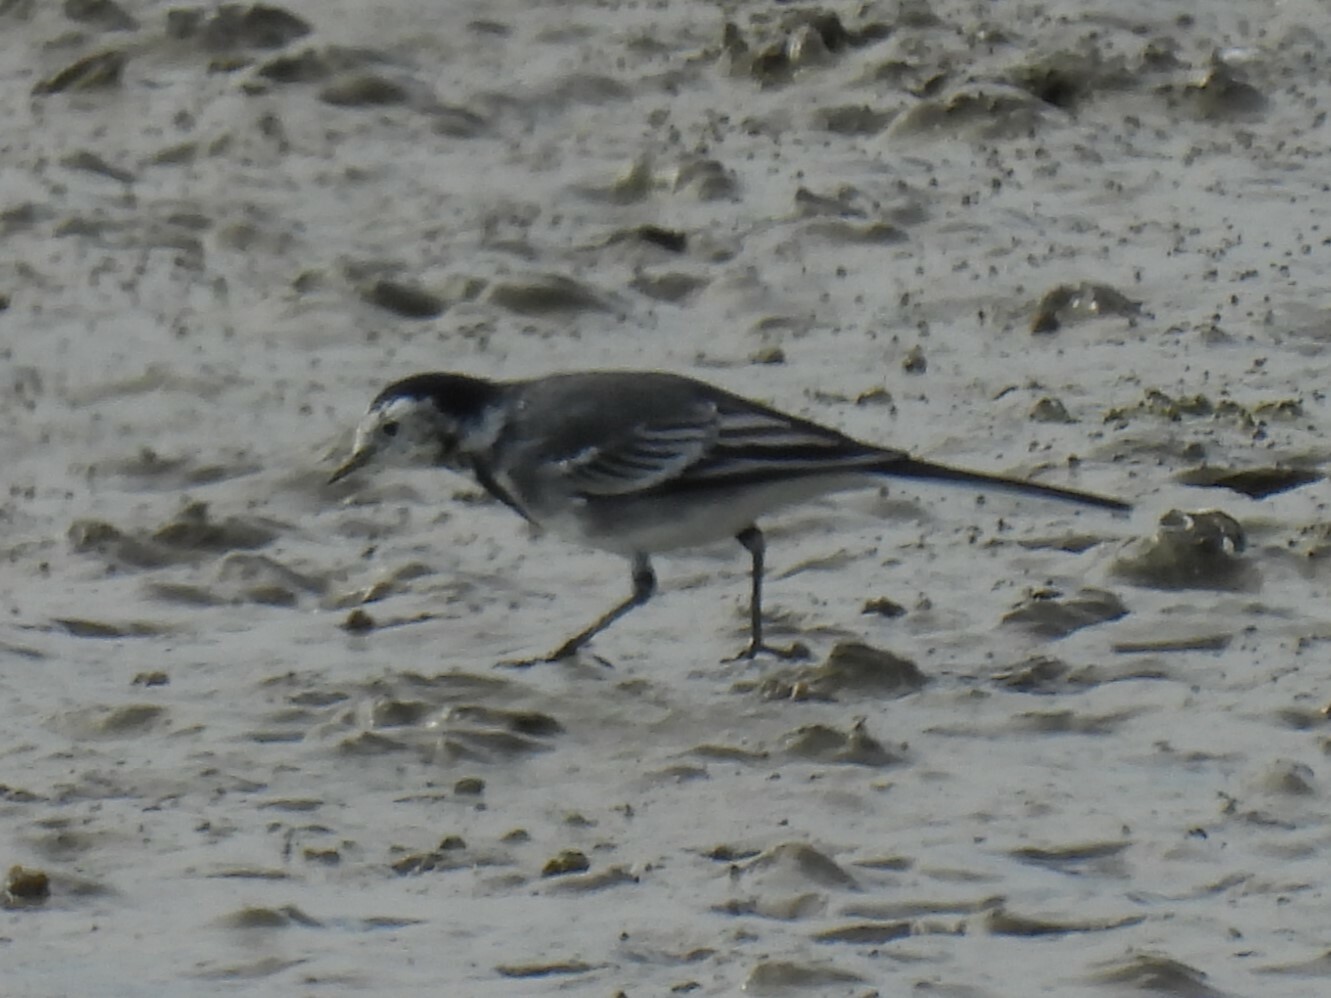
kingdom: Animalia
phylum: Chordata
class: Aves
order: Passeriformes
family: Motacillidae
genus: Motacilla
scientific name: Motacilla alba
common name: White wagtail
